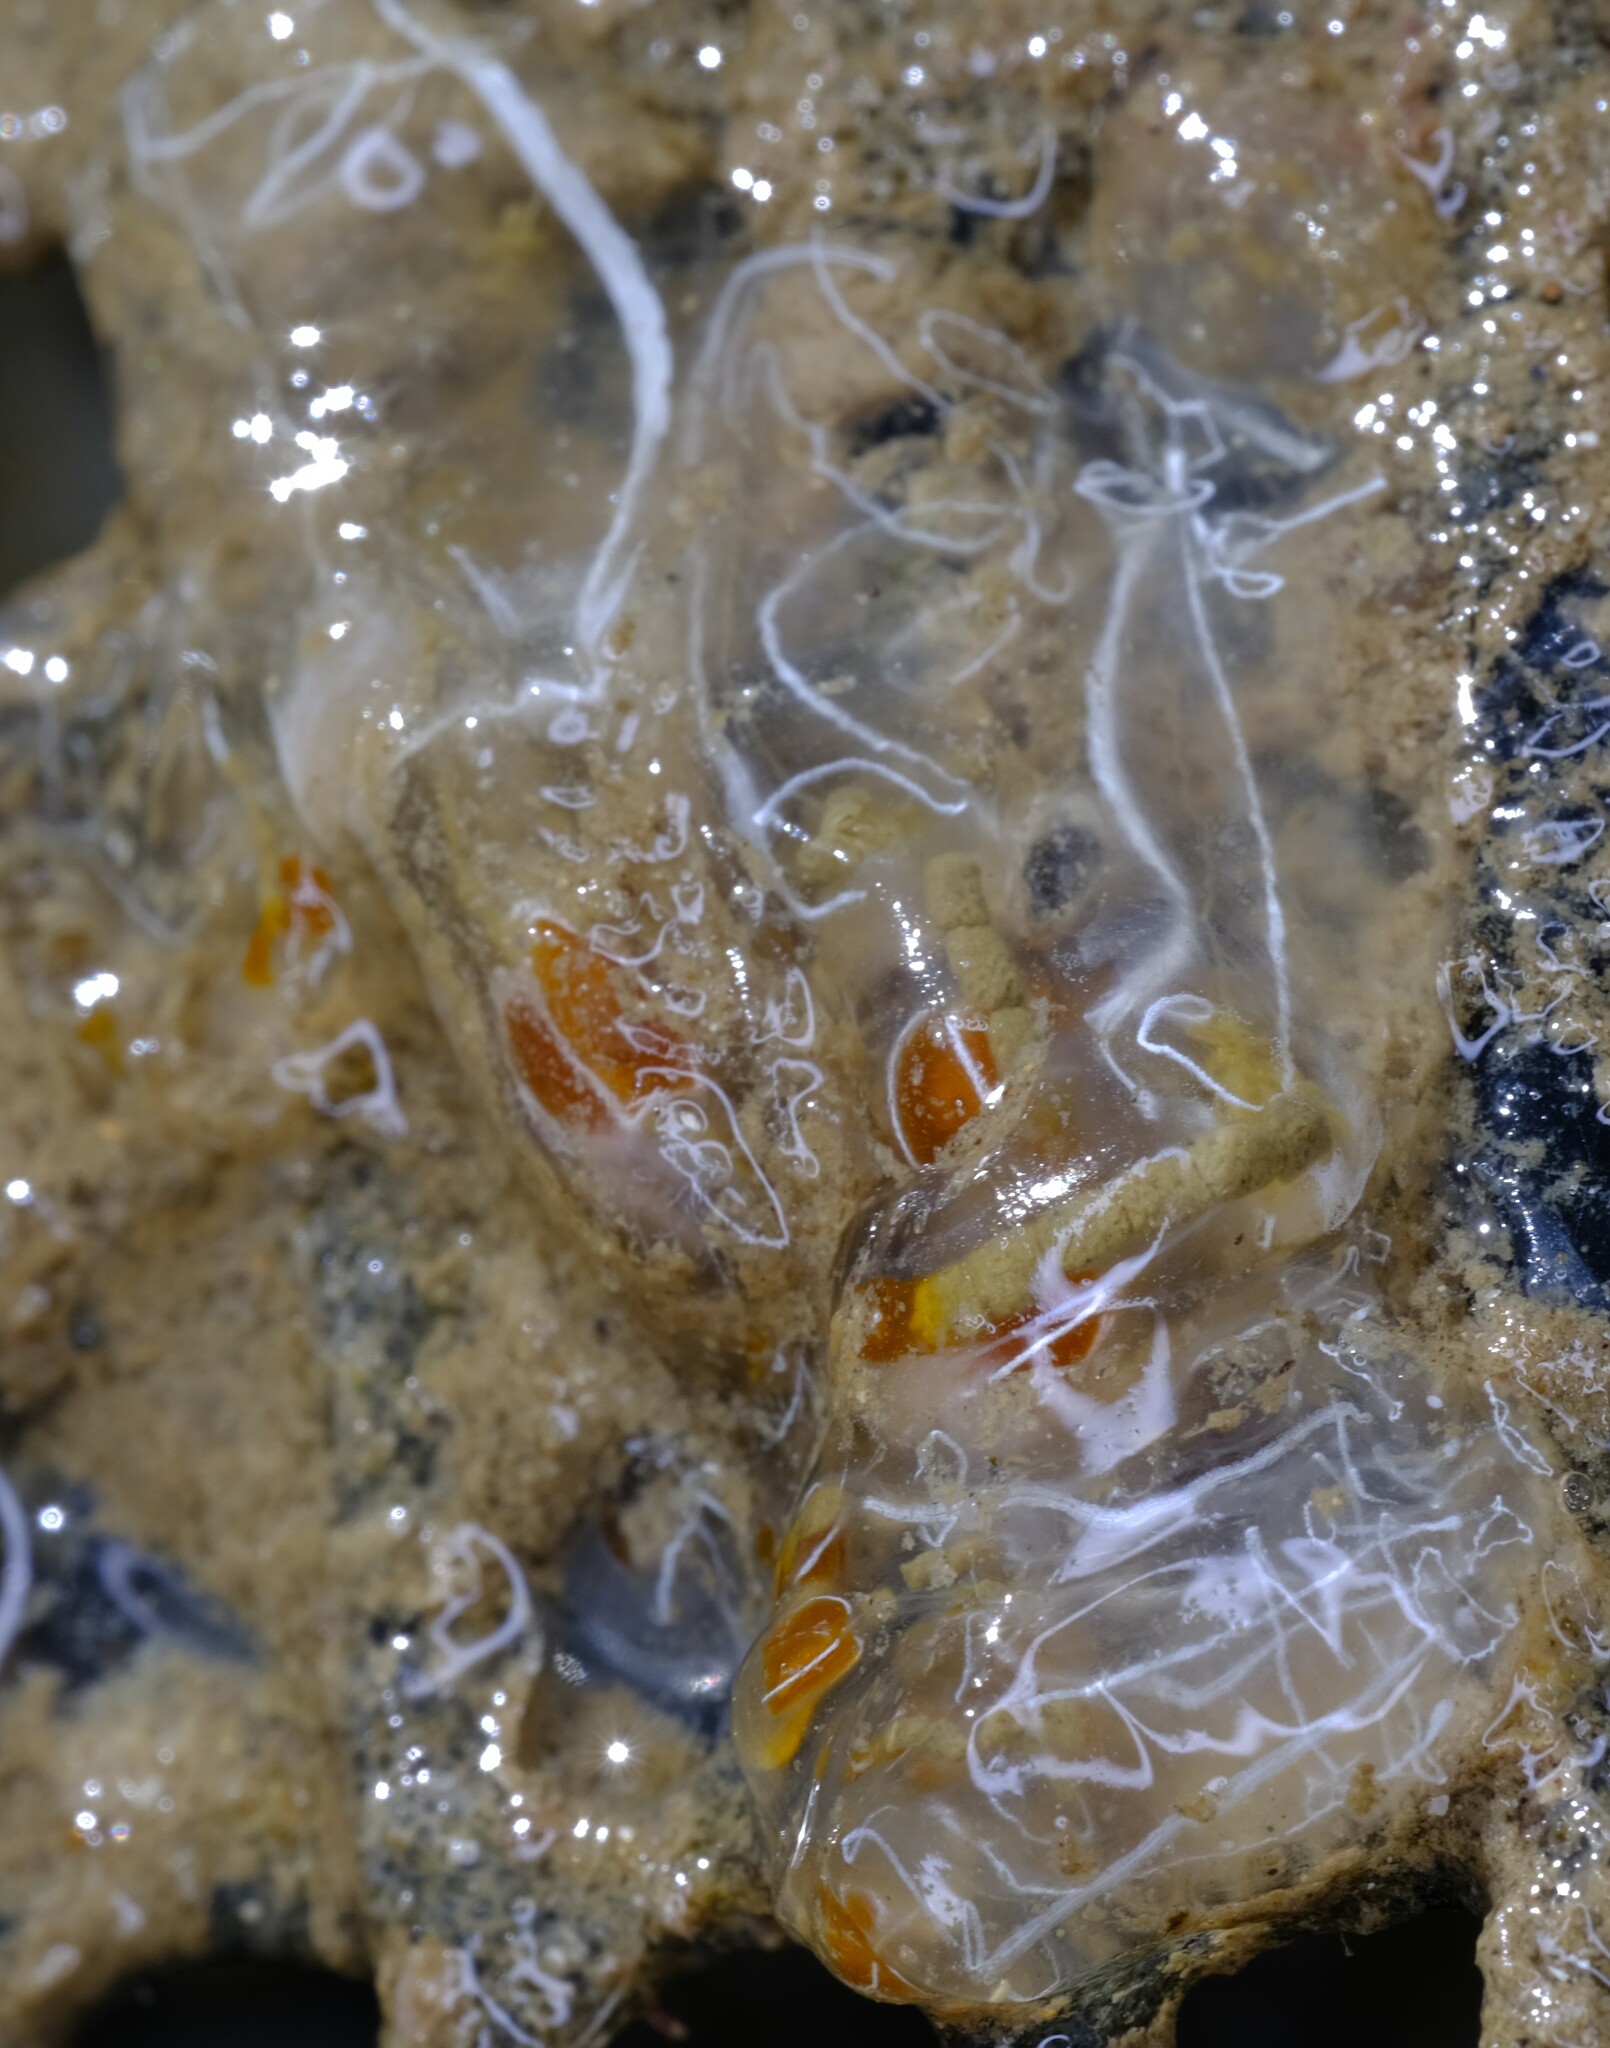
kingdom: Animalia
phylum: Chordata
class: Ascidiacea
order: Aplousobranchia
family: Clavelinidae
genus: Clavelina
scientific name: Clavelina lepadiformis
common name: Light bulb tunicate
